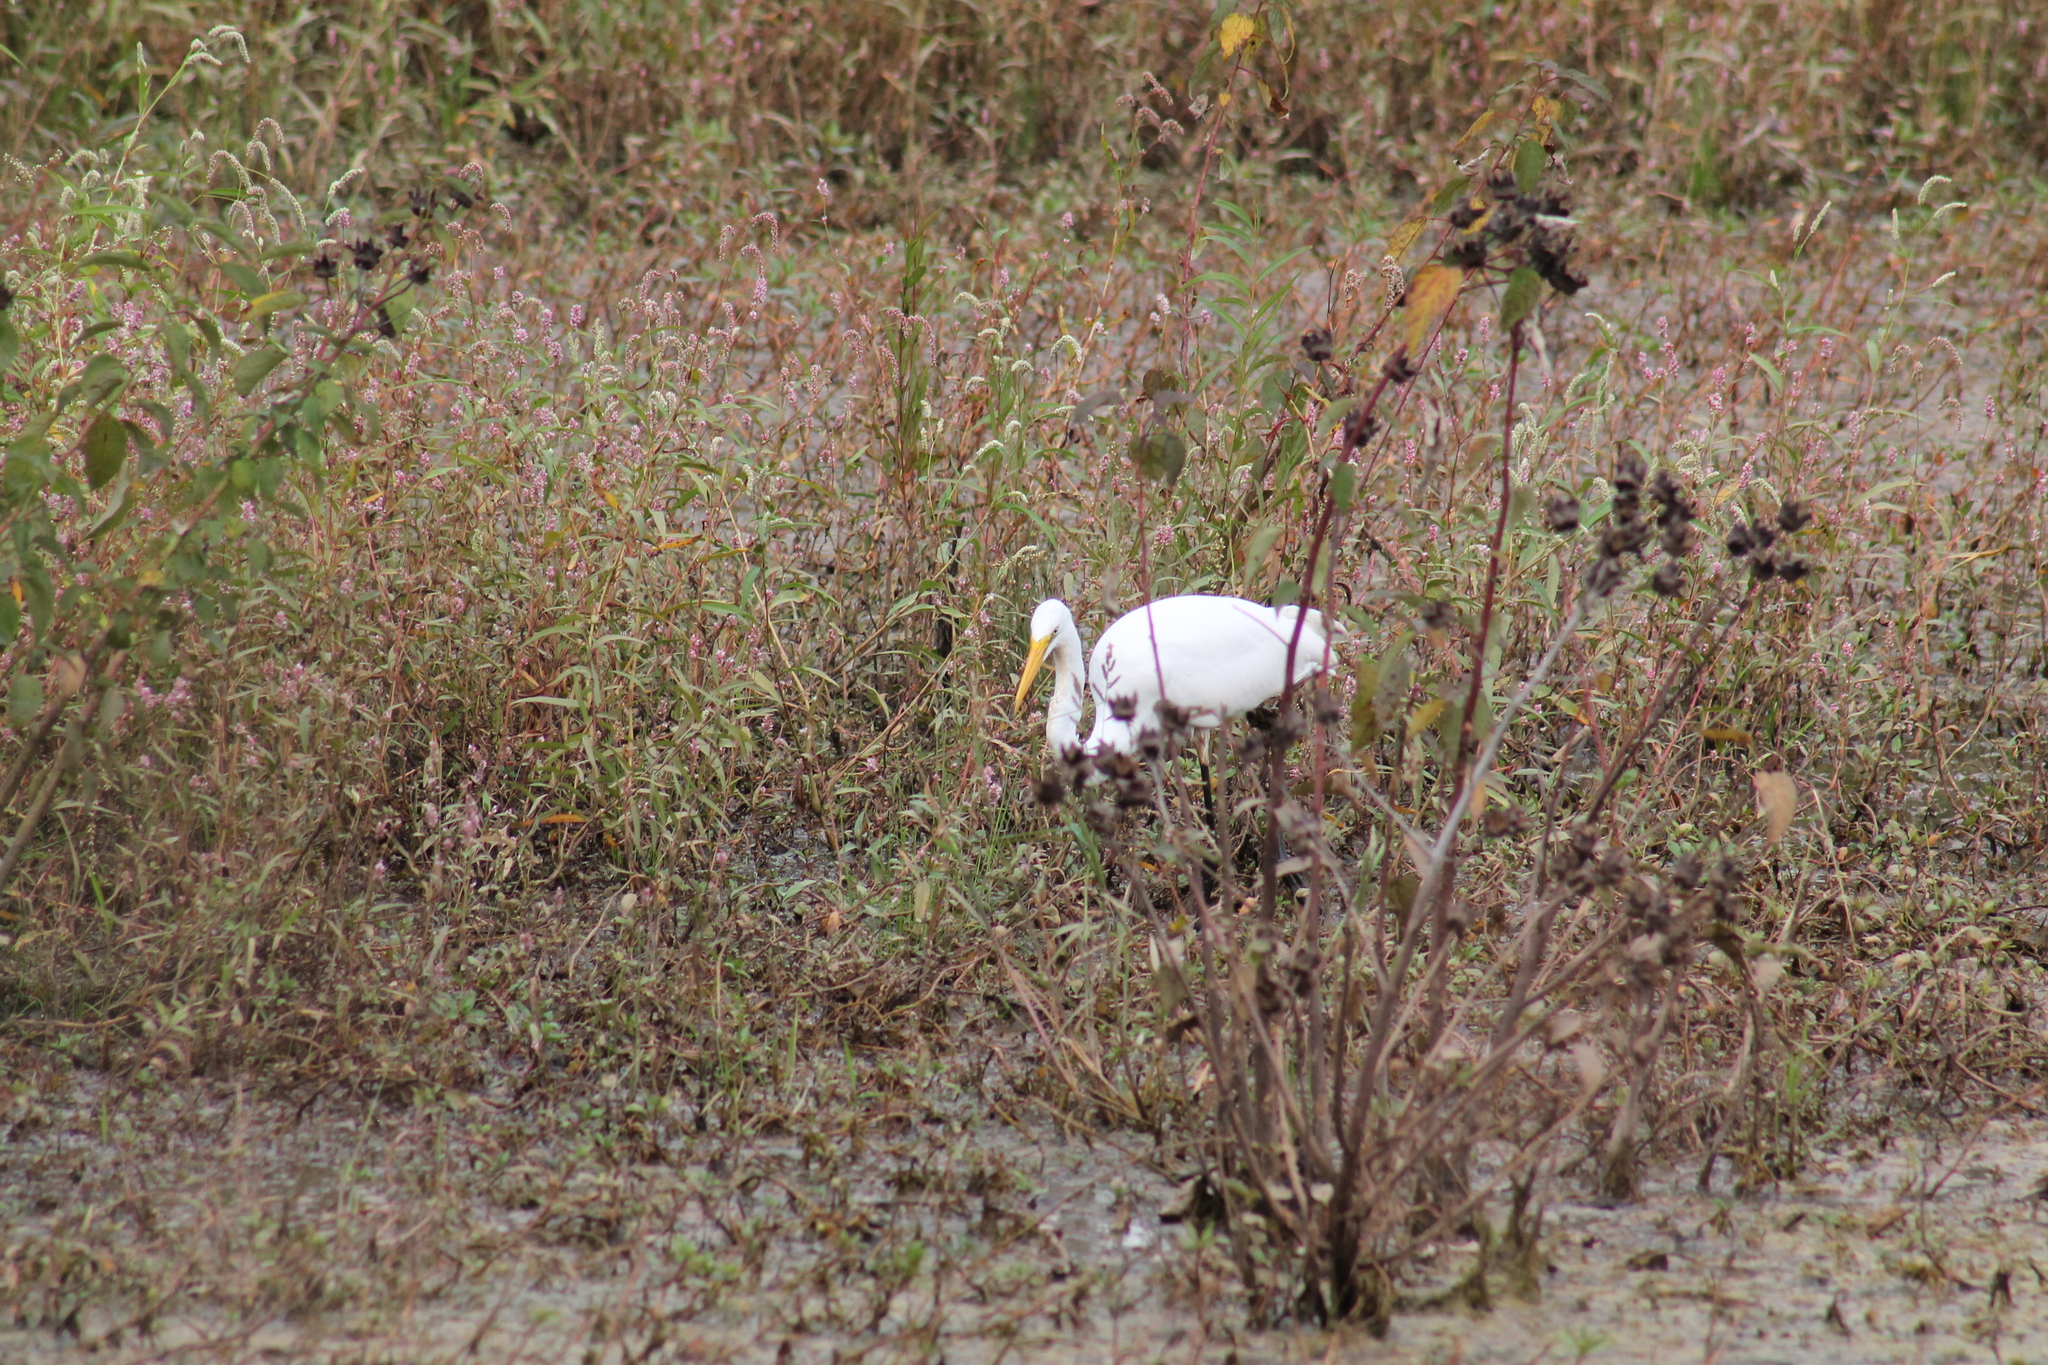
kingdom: Animalia
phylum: Chordata
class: Aves
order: Pelecaniformes
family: Ardeidae
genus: Ardea
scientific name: Ardea alba
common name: Great egret
